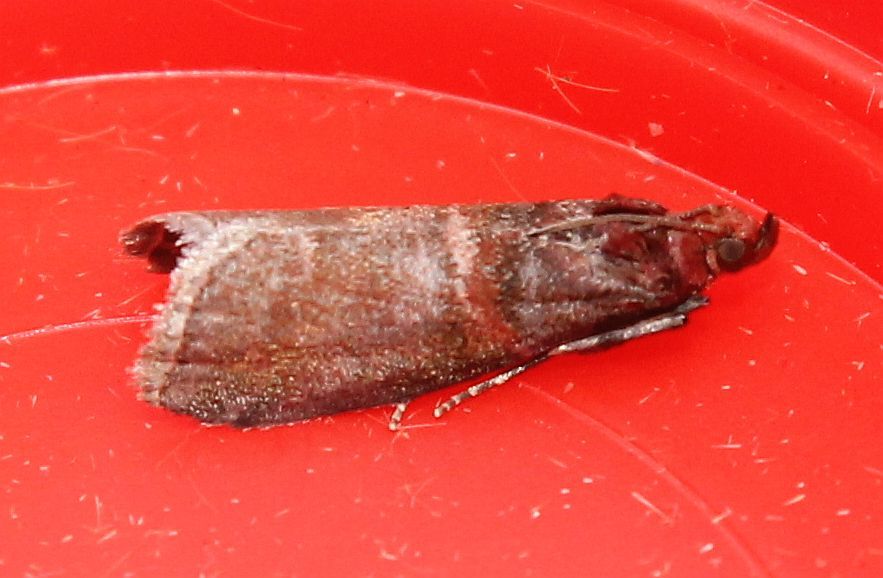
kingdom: Animalia
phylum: Arthropoda
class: Insecta
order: Lepidoptera
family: Pyralidae
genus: Acrobasis
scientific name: Acrobasis advenella
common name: Grey knot-horn
